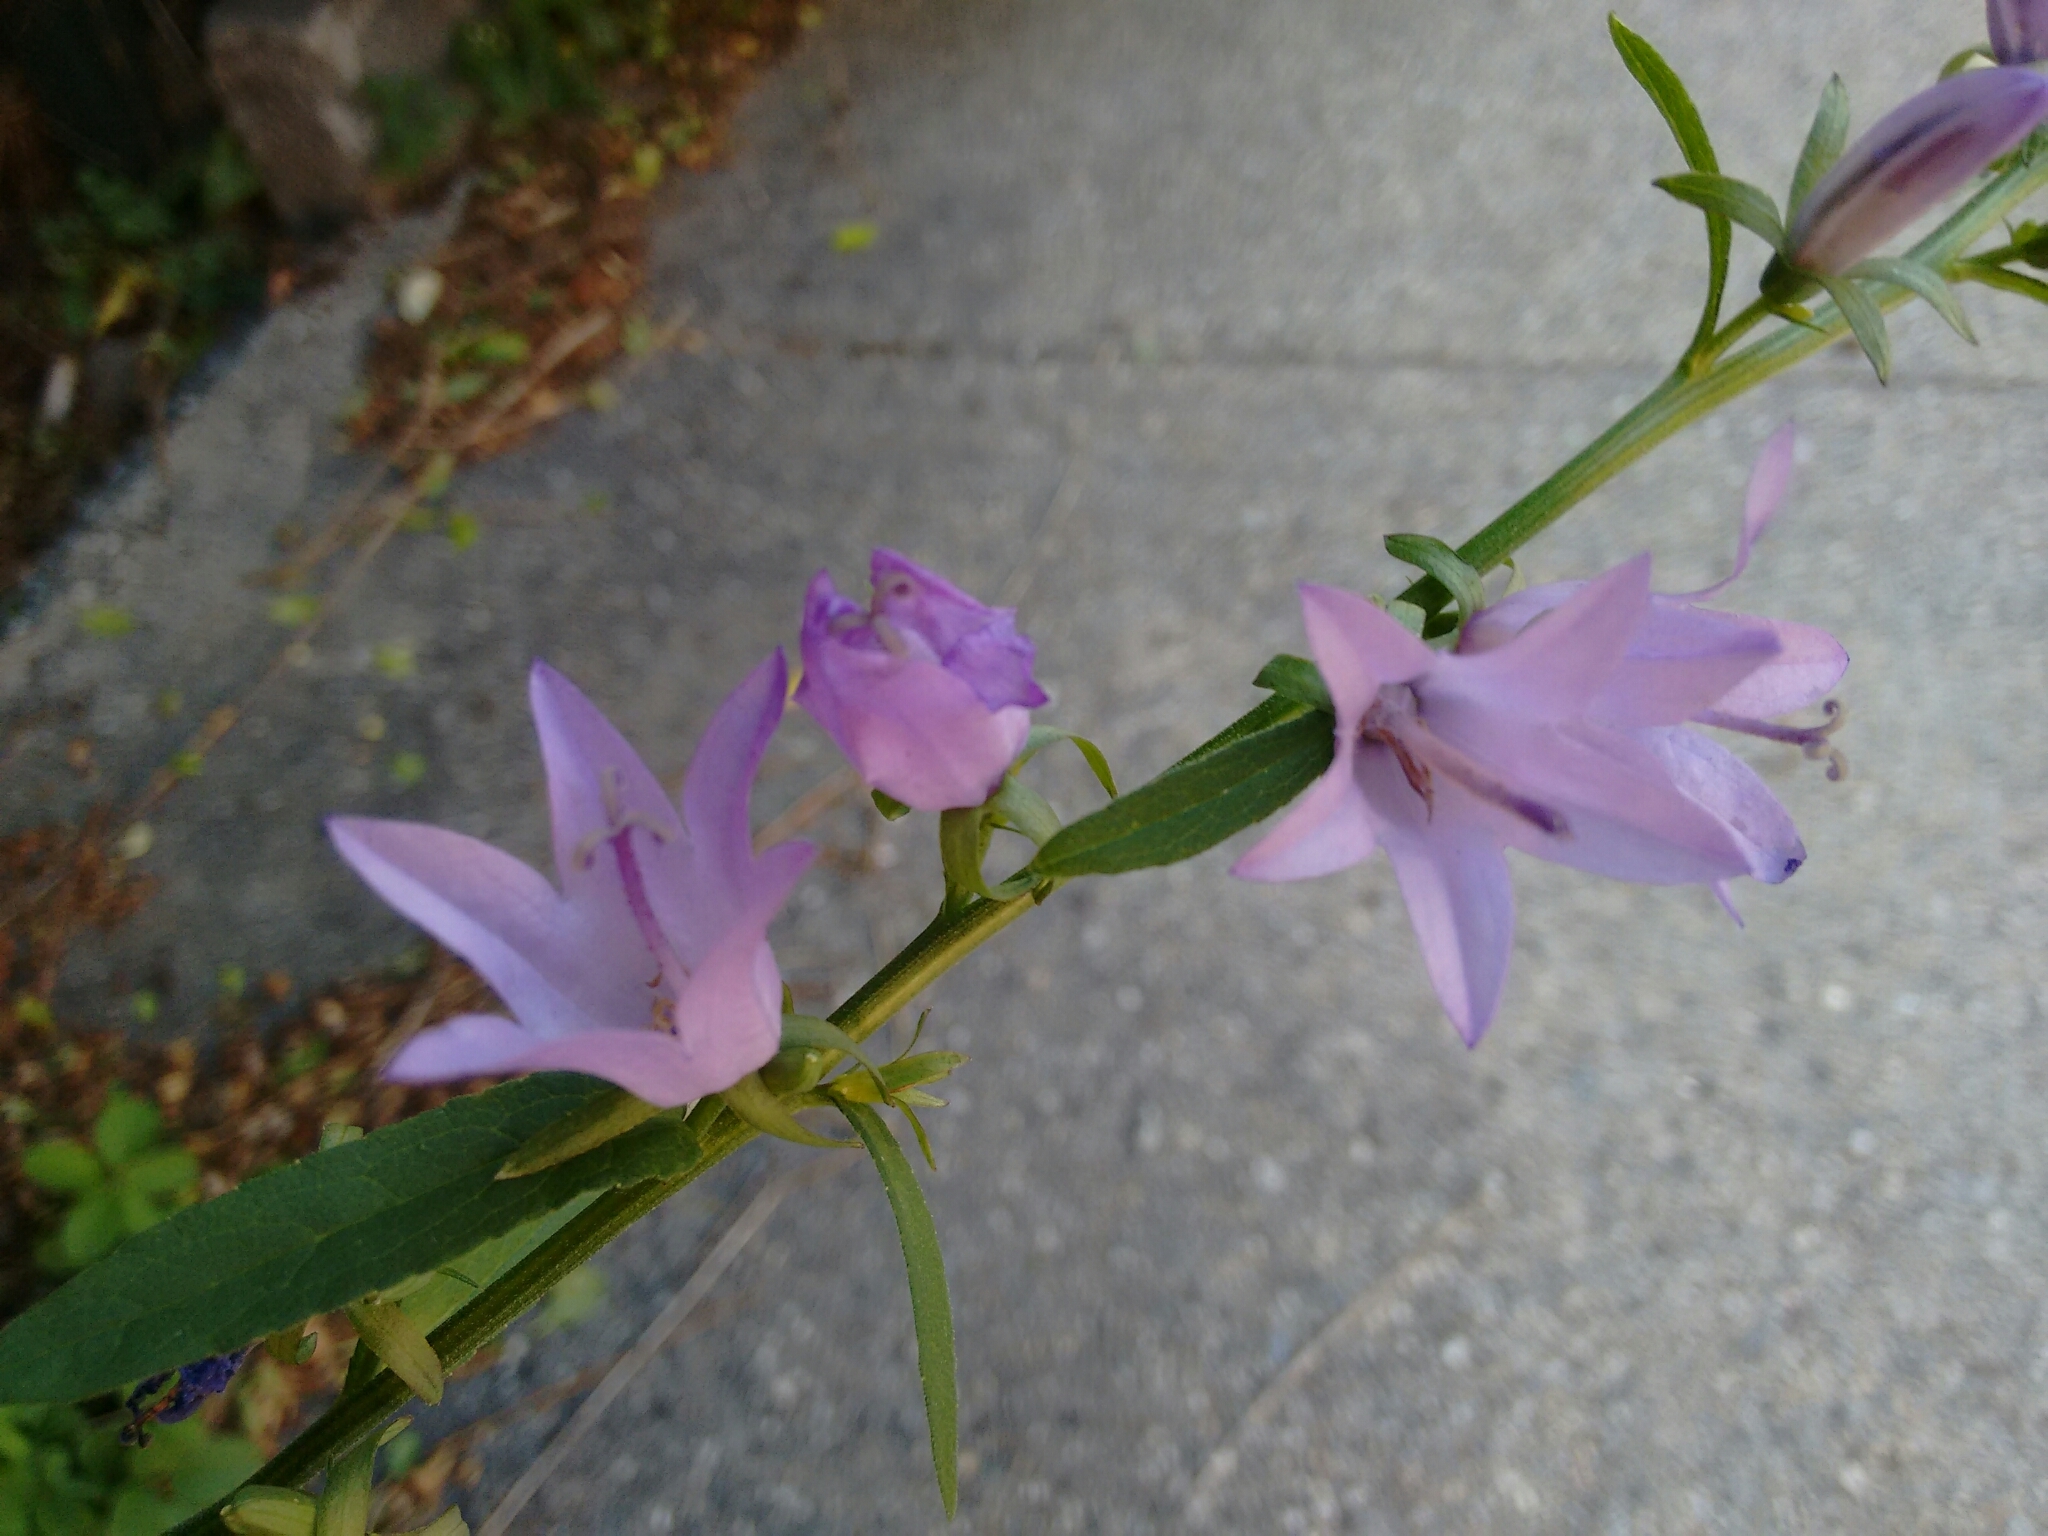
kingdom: Plantae
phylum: Tracheophyta
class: Magnoliopsida
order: Asterales
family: Campanulaceae
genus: Campanula
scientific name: Campanula rapunculoides
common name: Creeping bellflower
